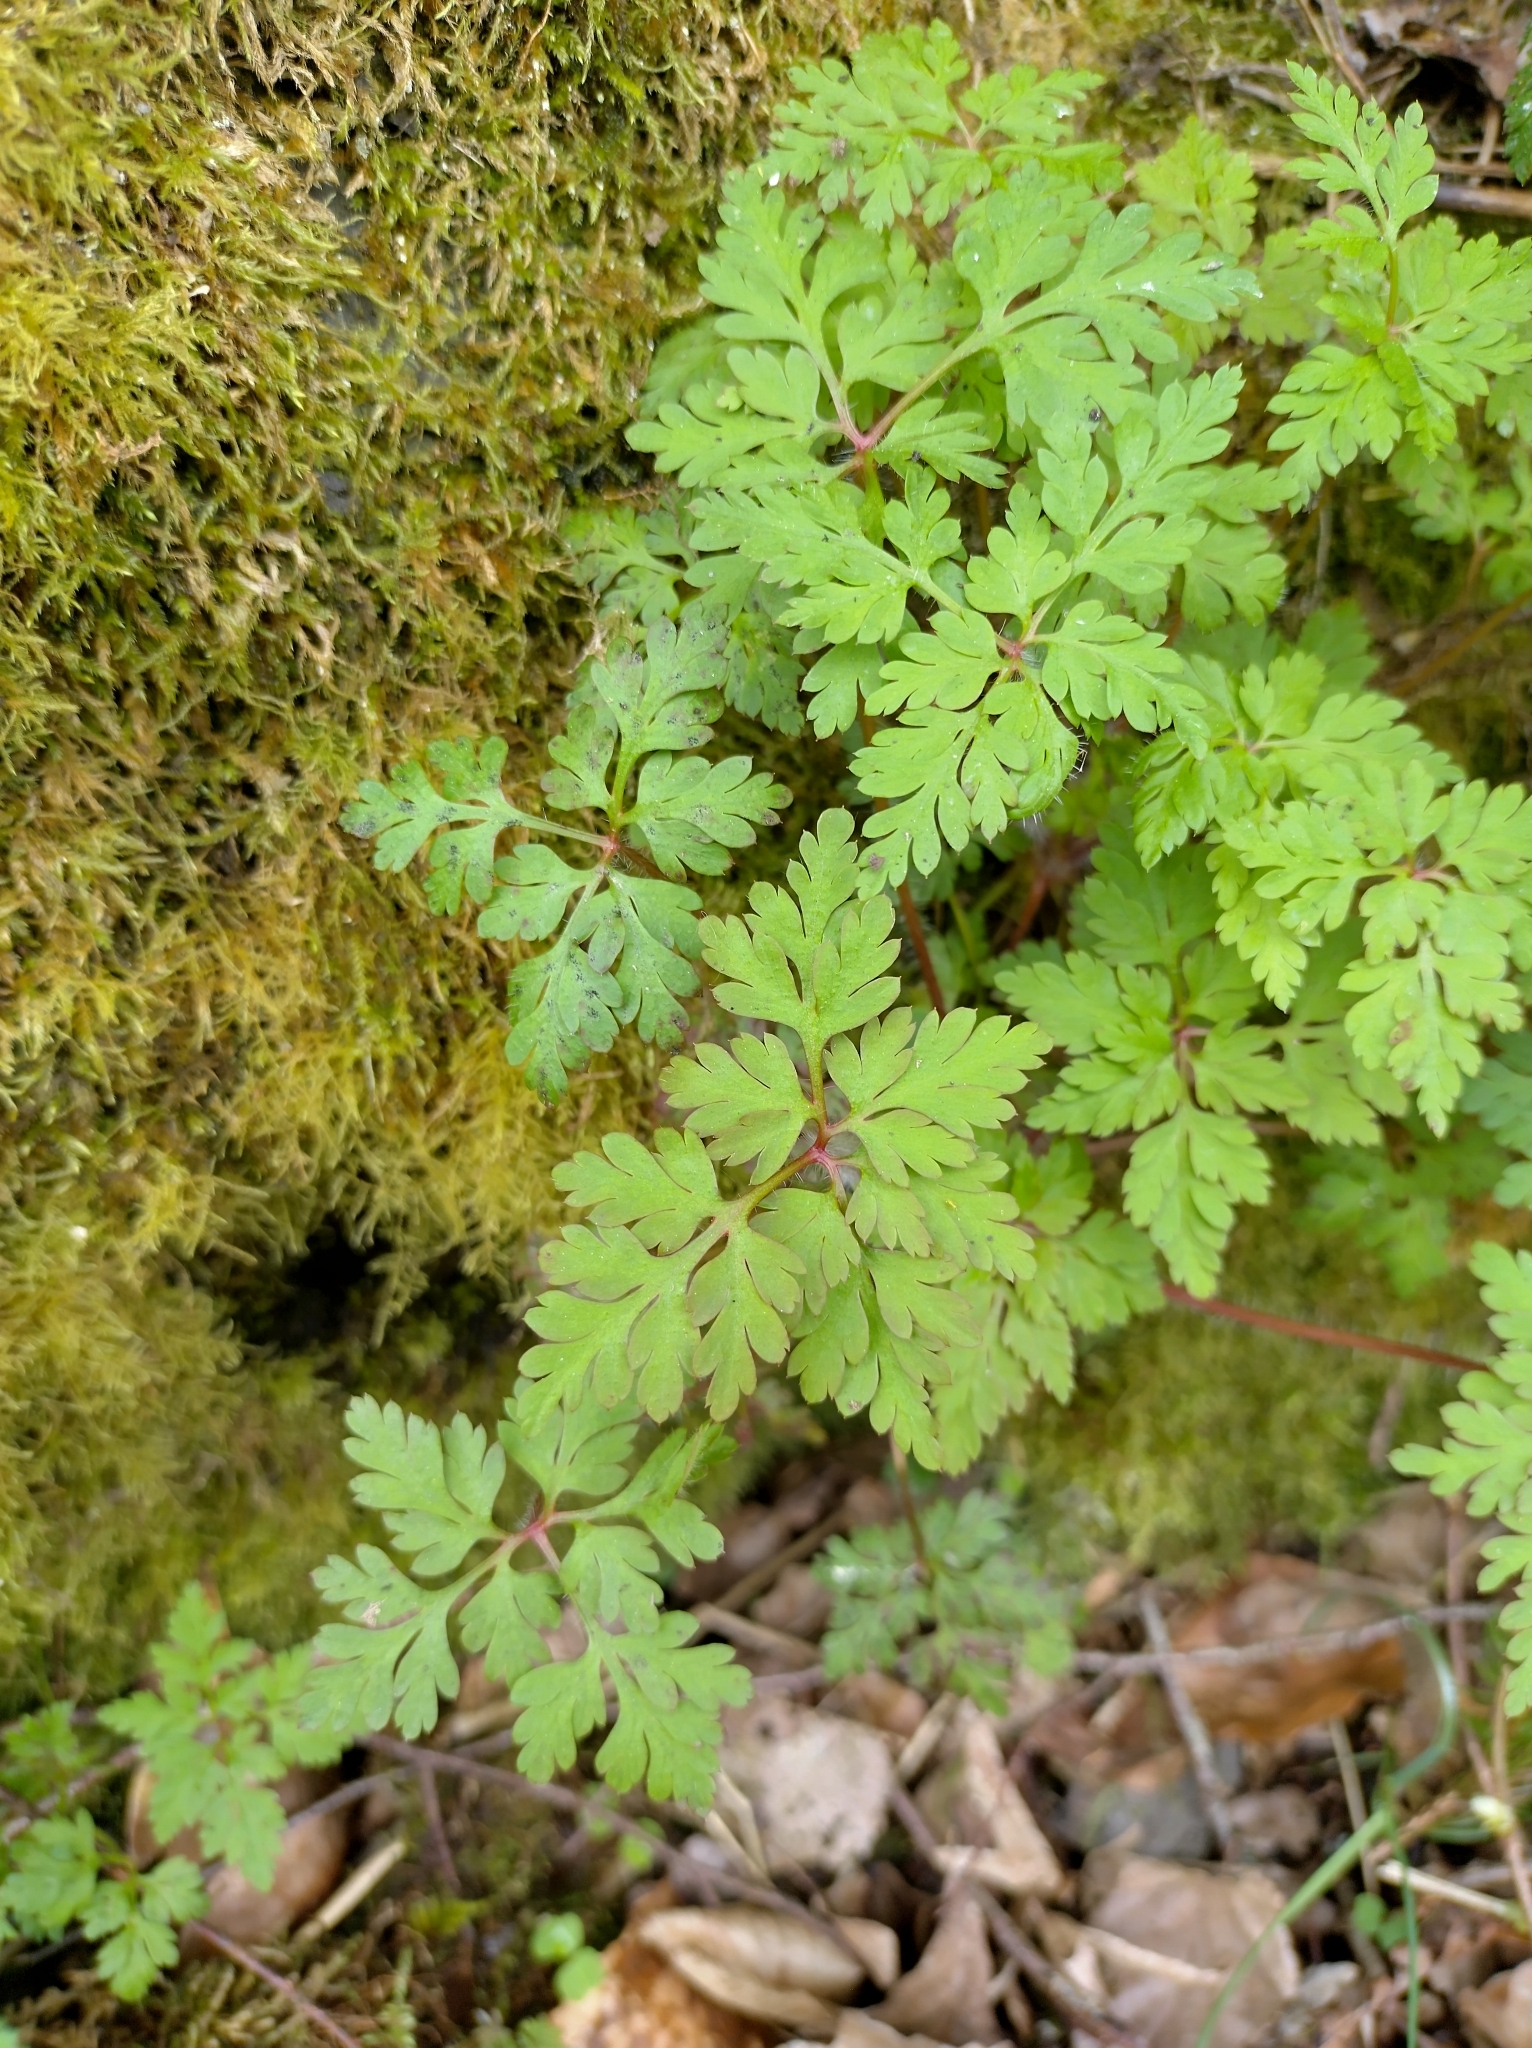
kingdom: Plantae
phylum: Tracheophyta
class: Magnoliopsida
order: Geraniales
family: Geraniaceae
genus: Geranium
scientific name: Geranium robertianum
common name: Herb-robert
